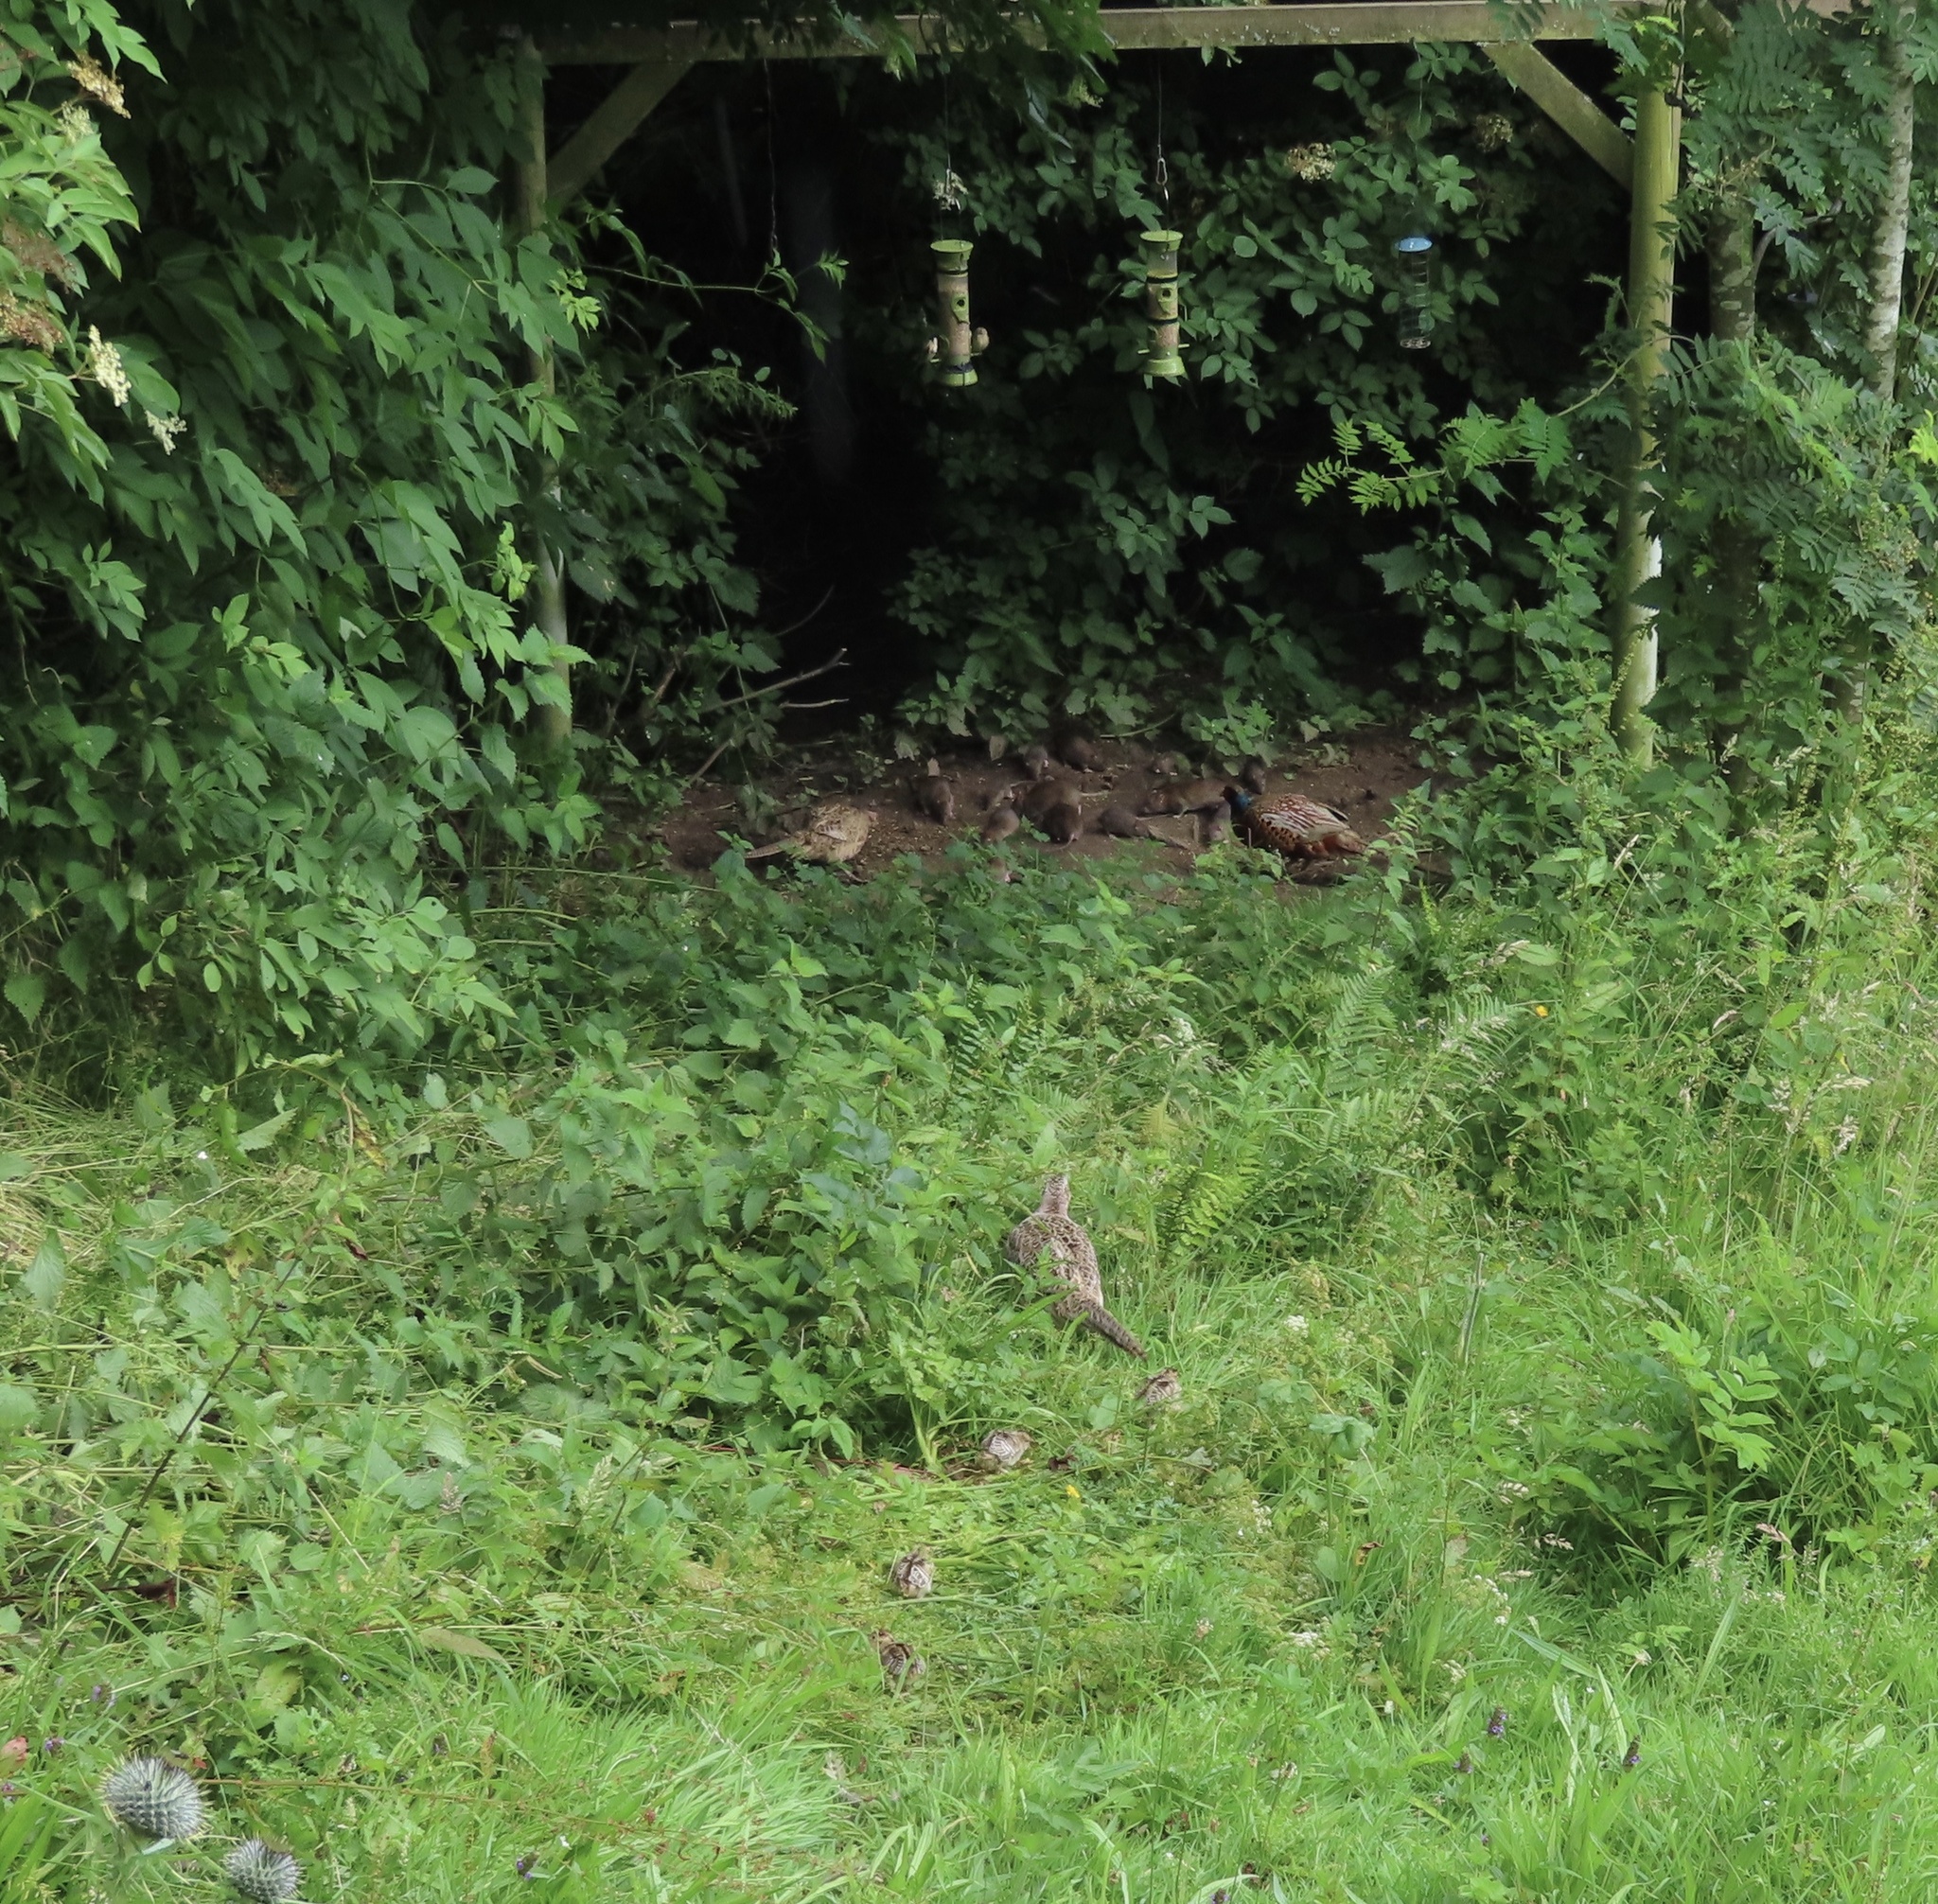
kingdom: Animalia
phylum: Chordata
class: Aves
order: Galliformes
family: Phasianidae
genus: Phasianus
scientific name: Phasianus colchicus
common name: Common pheasant
